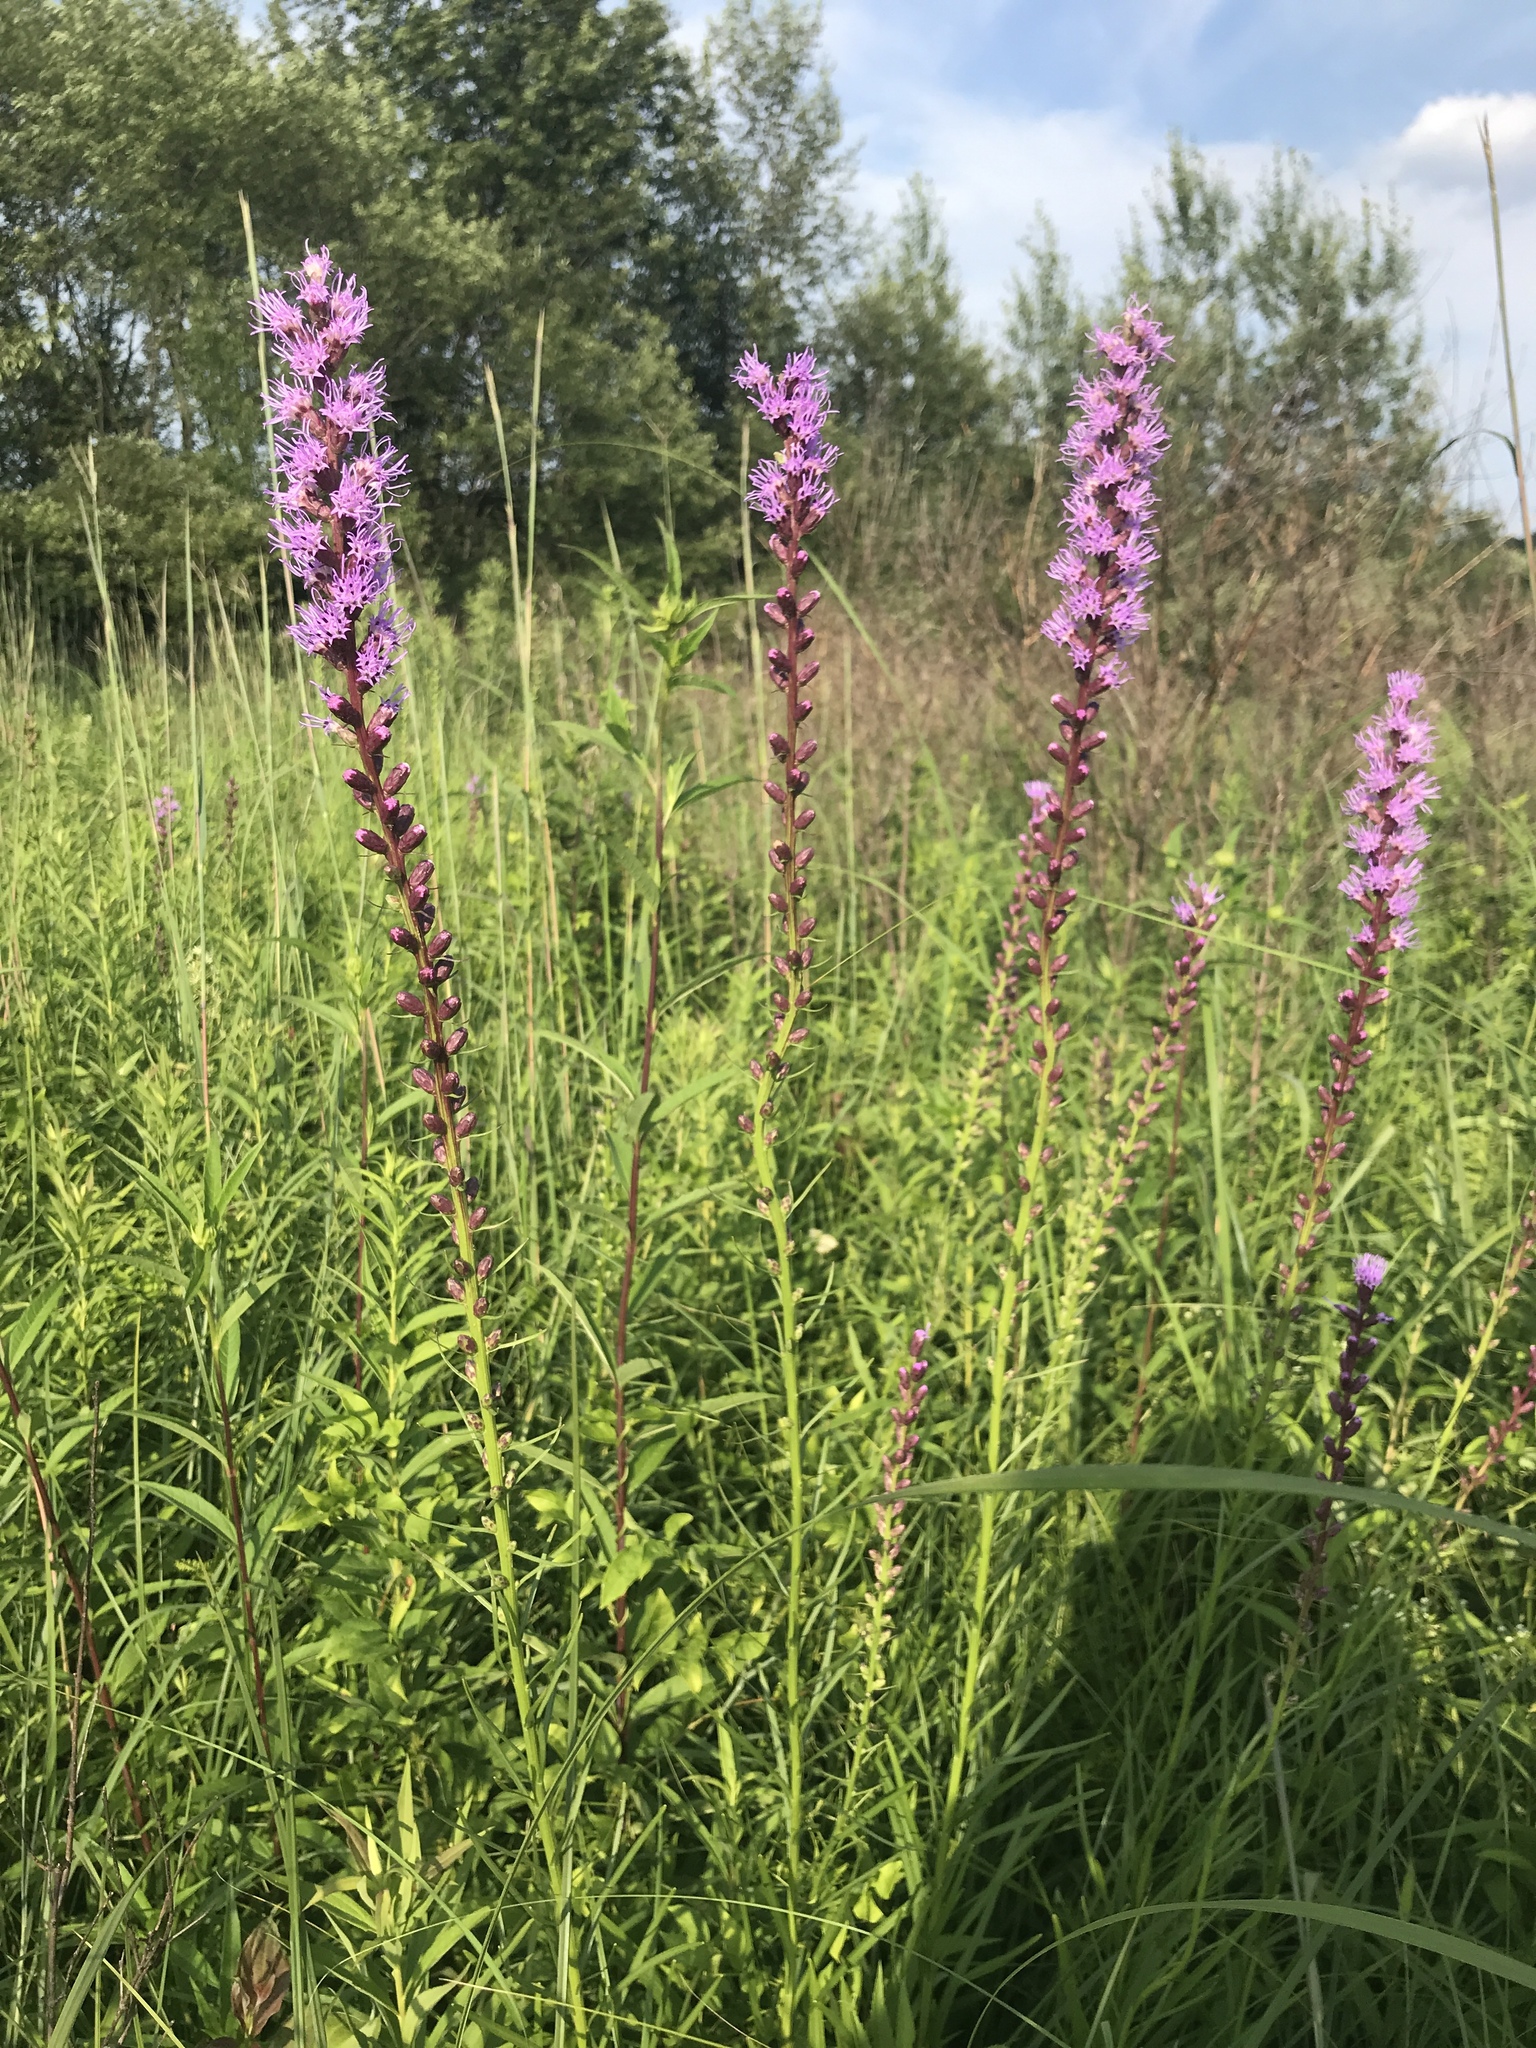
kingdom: Plantae
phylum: Tracheophyta
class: Magnoliopsida
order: Asterales
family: Asteraceae
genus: Liatris
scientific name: Liatris spicata
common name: Florist gayfeather
